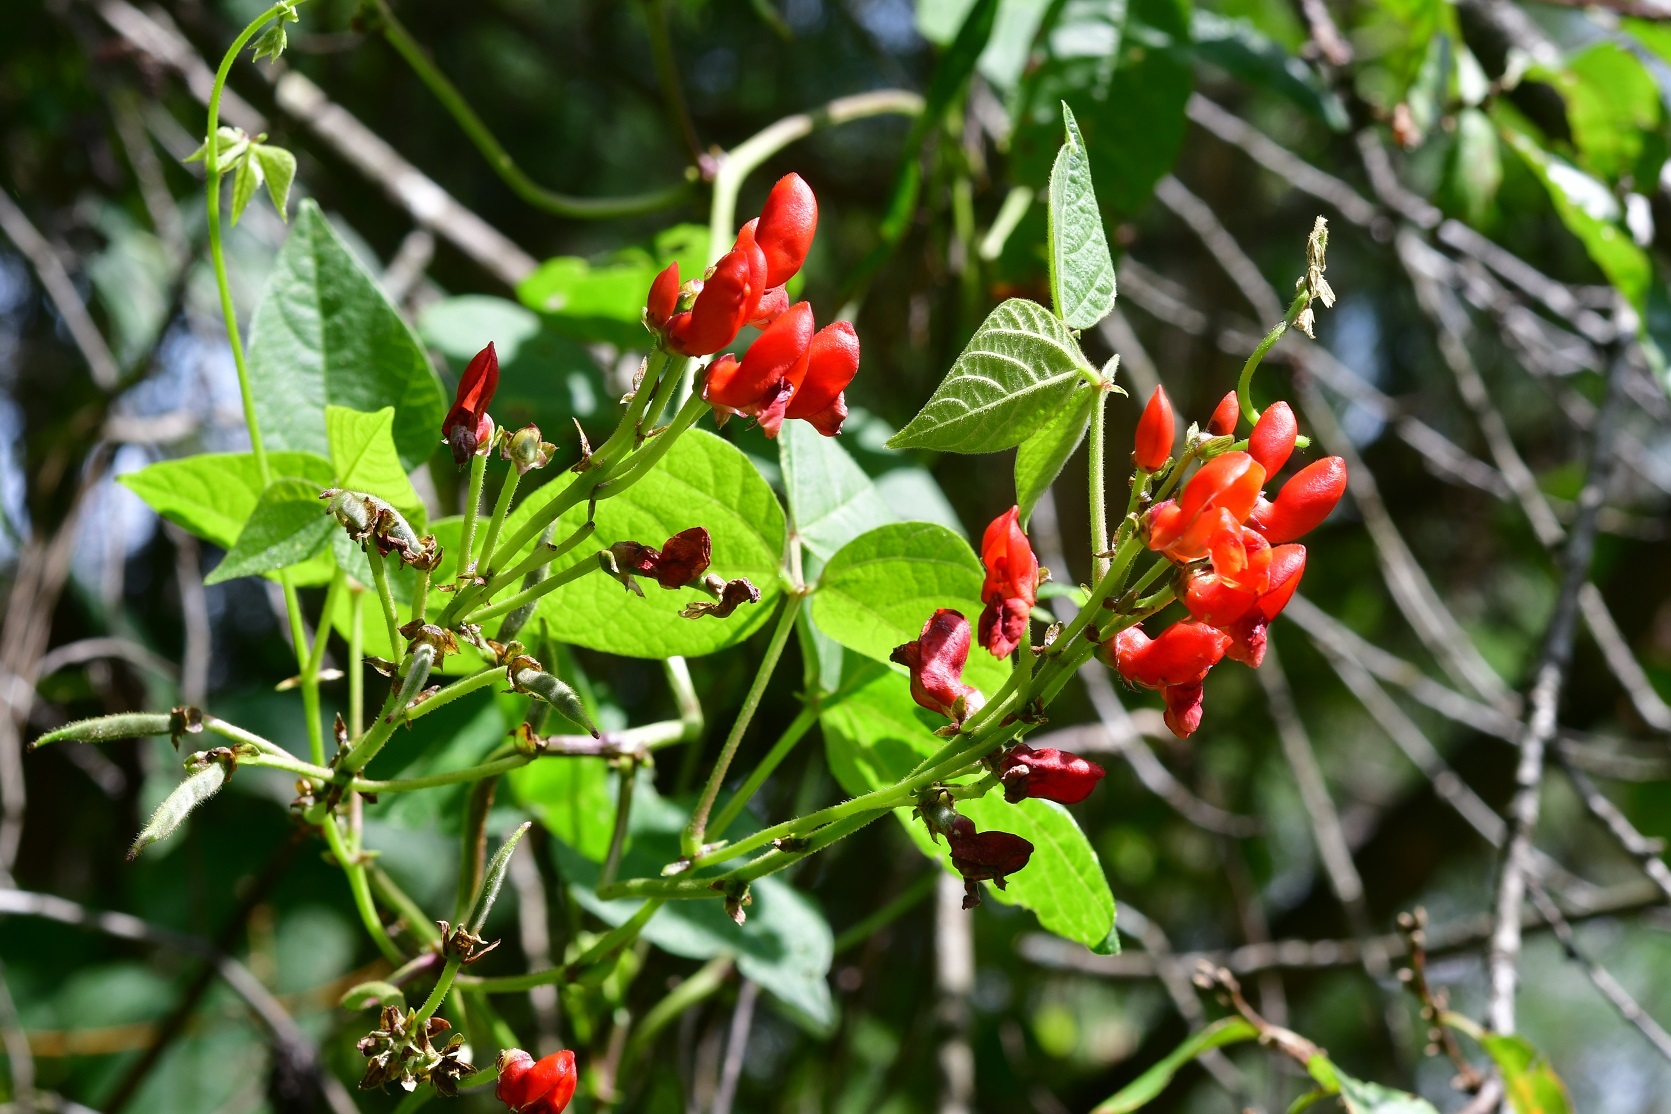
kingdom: Plantae
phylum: Tracheophyta
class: Magnoliopsida
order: Fabales
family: Fabaceae
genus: Phaseolus
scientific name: Phaseolus coccineus
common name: Runner bean
